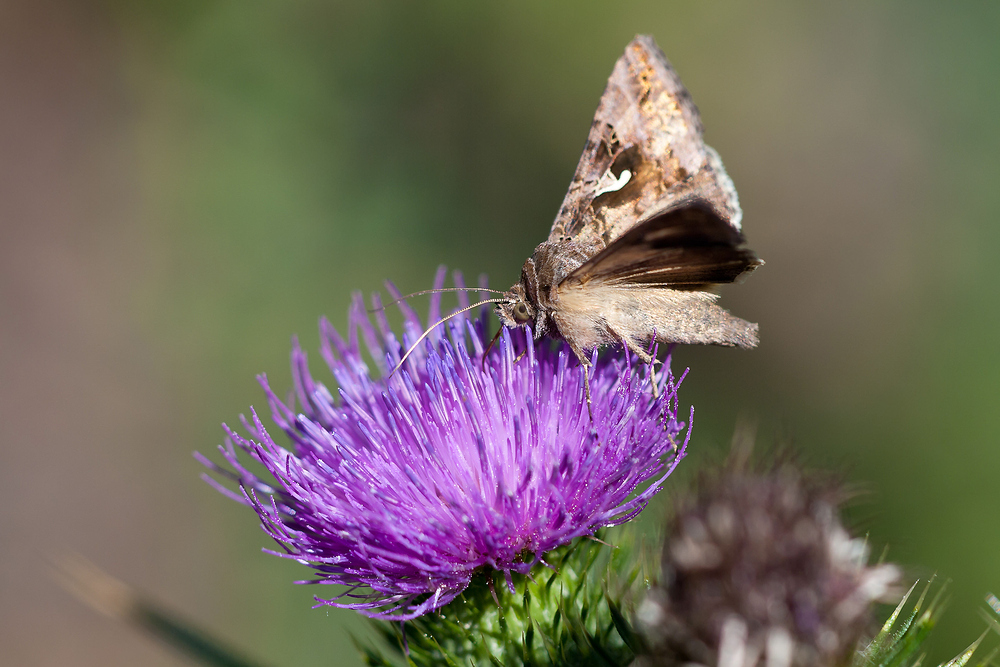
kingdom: Animalia
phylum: Arthropoda
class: Insecta
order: Lepidoptera
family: Noctuidae
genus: Autographa
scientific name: Autographa gamma
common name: Silver y
